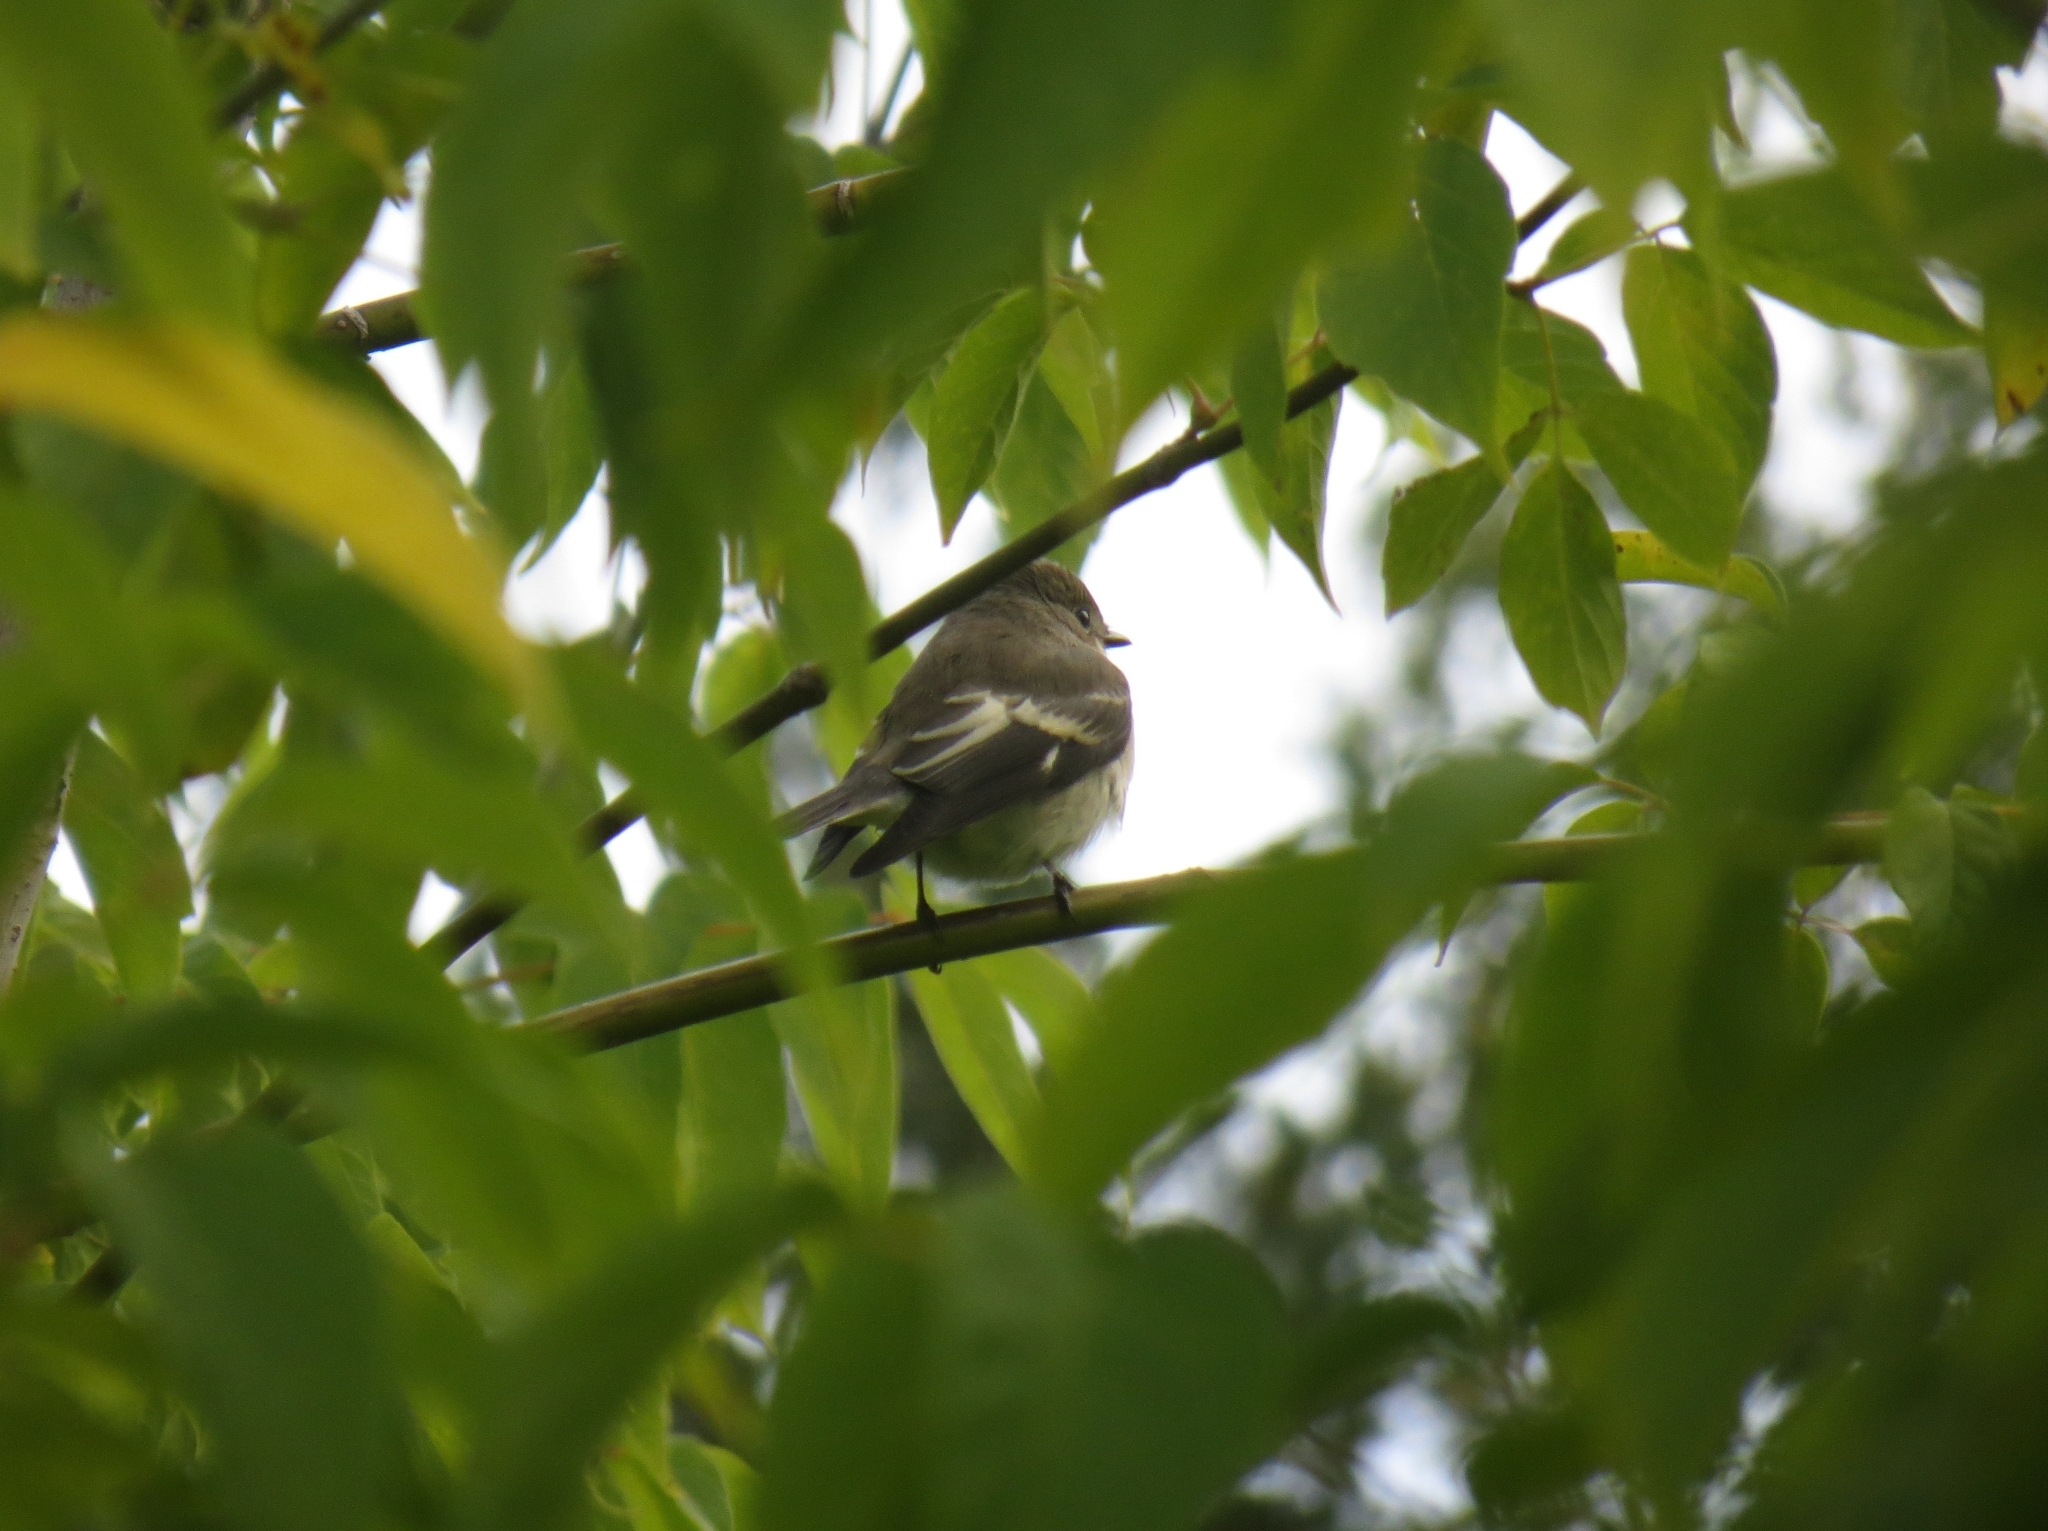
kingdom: Animalia
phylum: Chordata
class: Aves
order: Passeriformes
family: Muscicapidae
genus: Ficedula
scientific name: Ficedula hypoleuca
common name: European pied flycatcher
